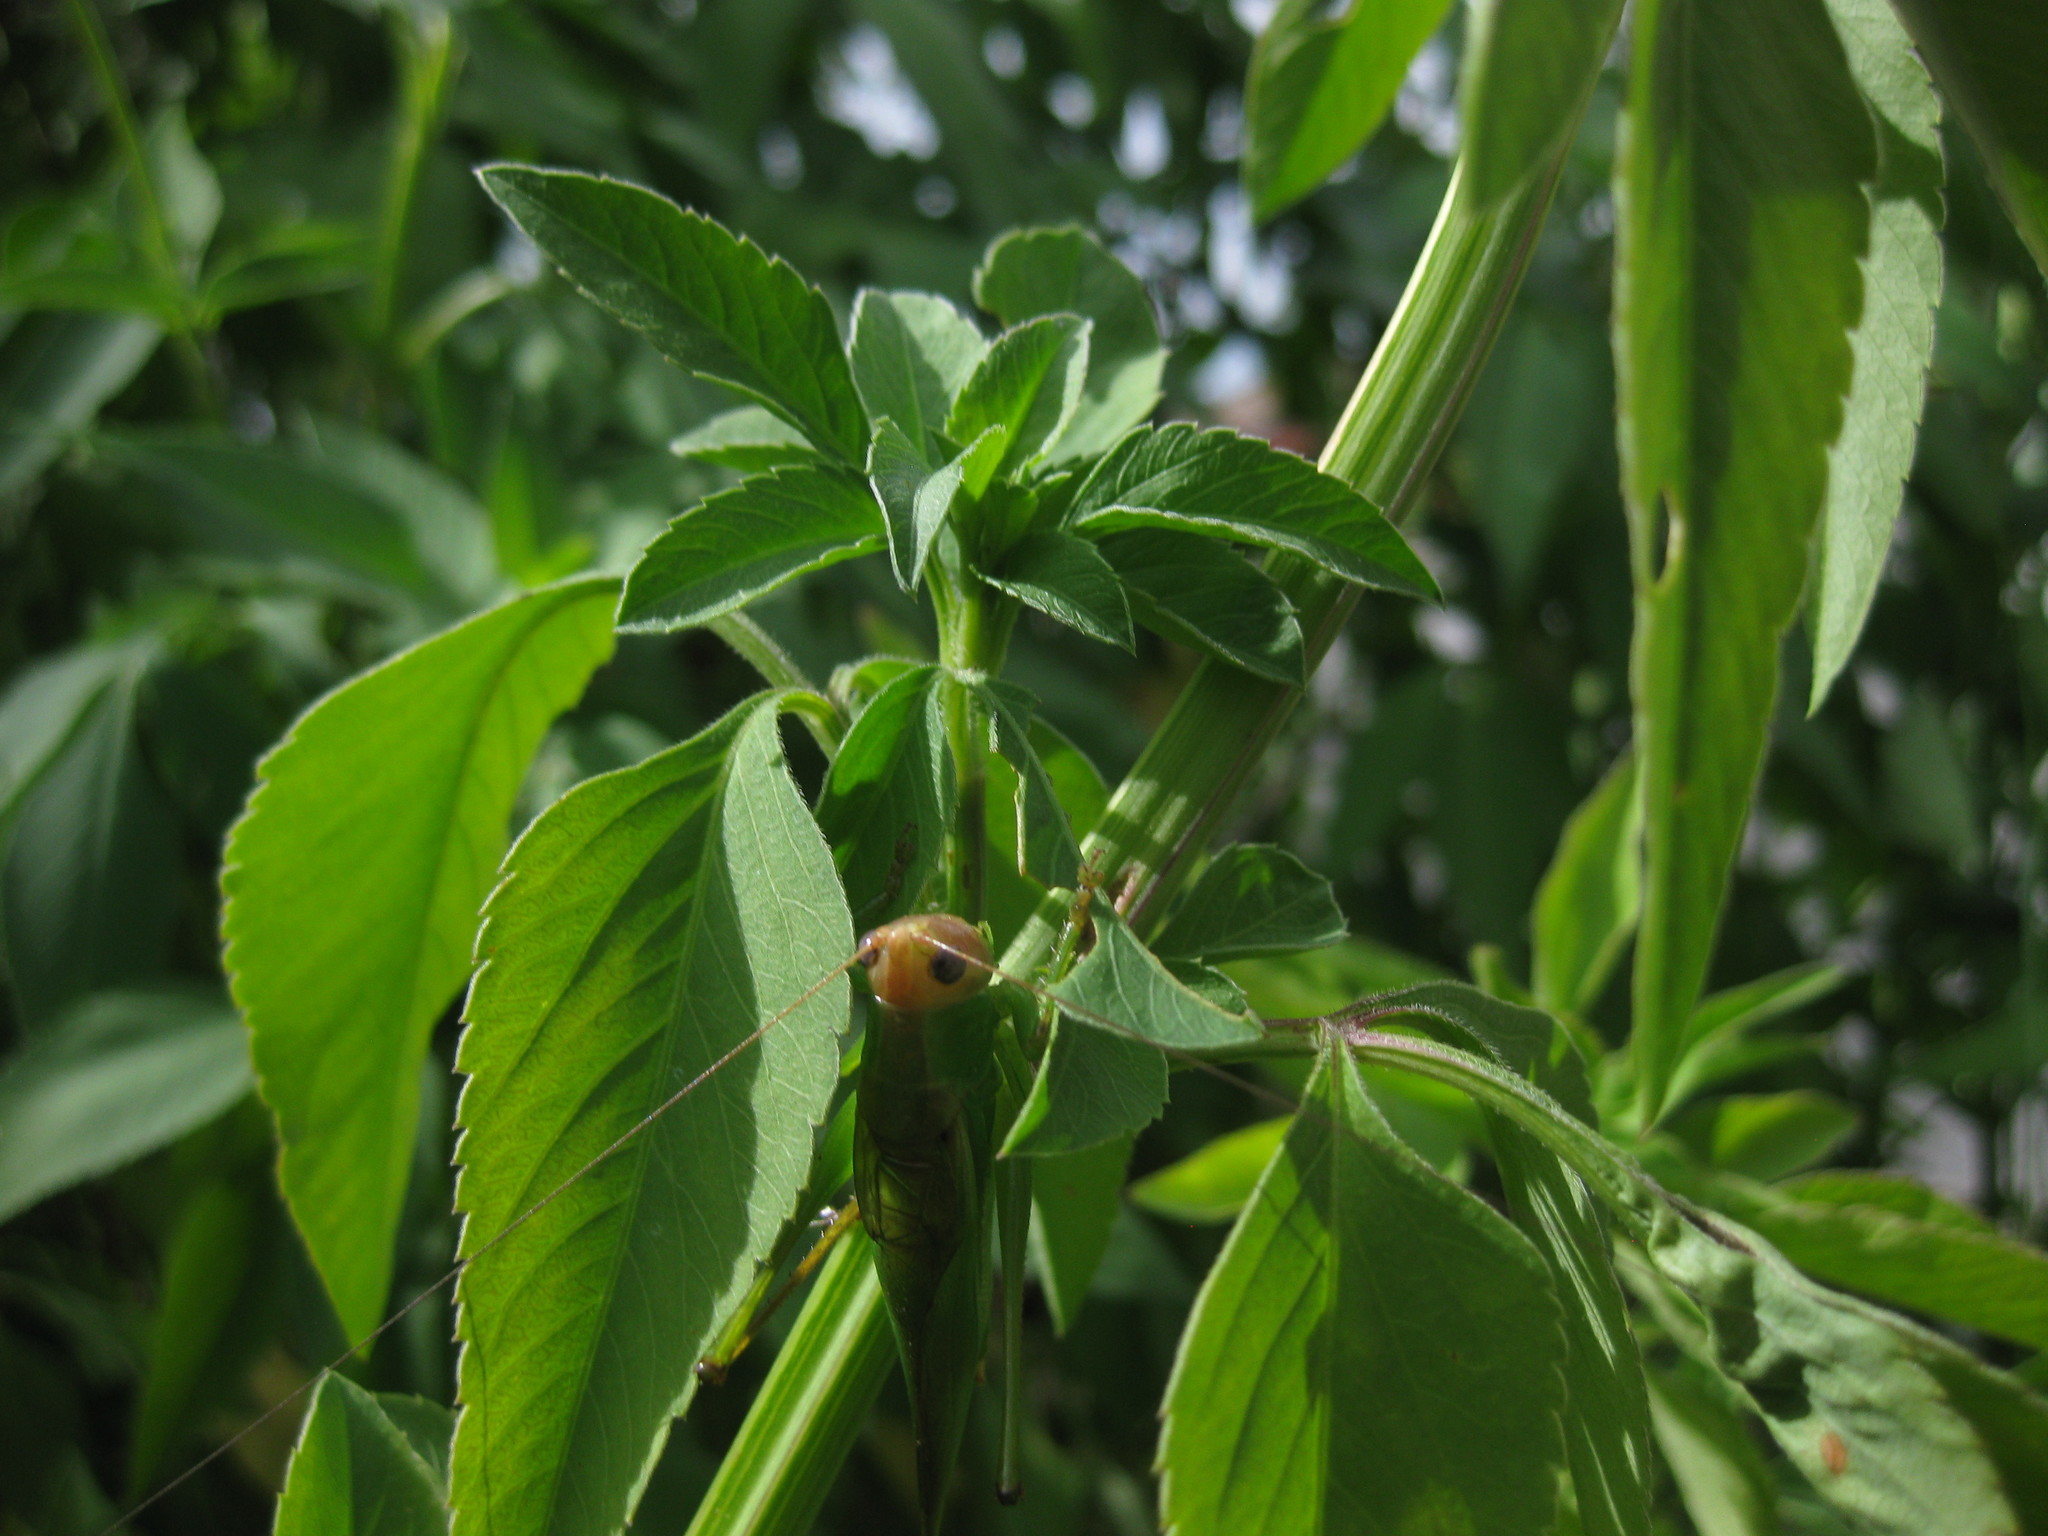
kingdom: Animalia
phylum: Arthropoda
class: Insecta
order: Orthoptera
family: Tettigoniidae
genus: Orchelimum
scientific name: Orchelimum erythrocephalum
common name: Red-headed meadow katydid
